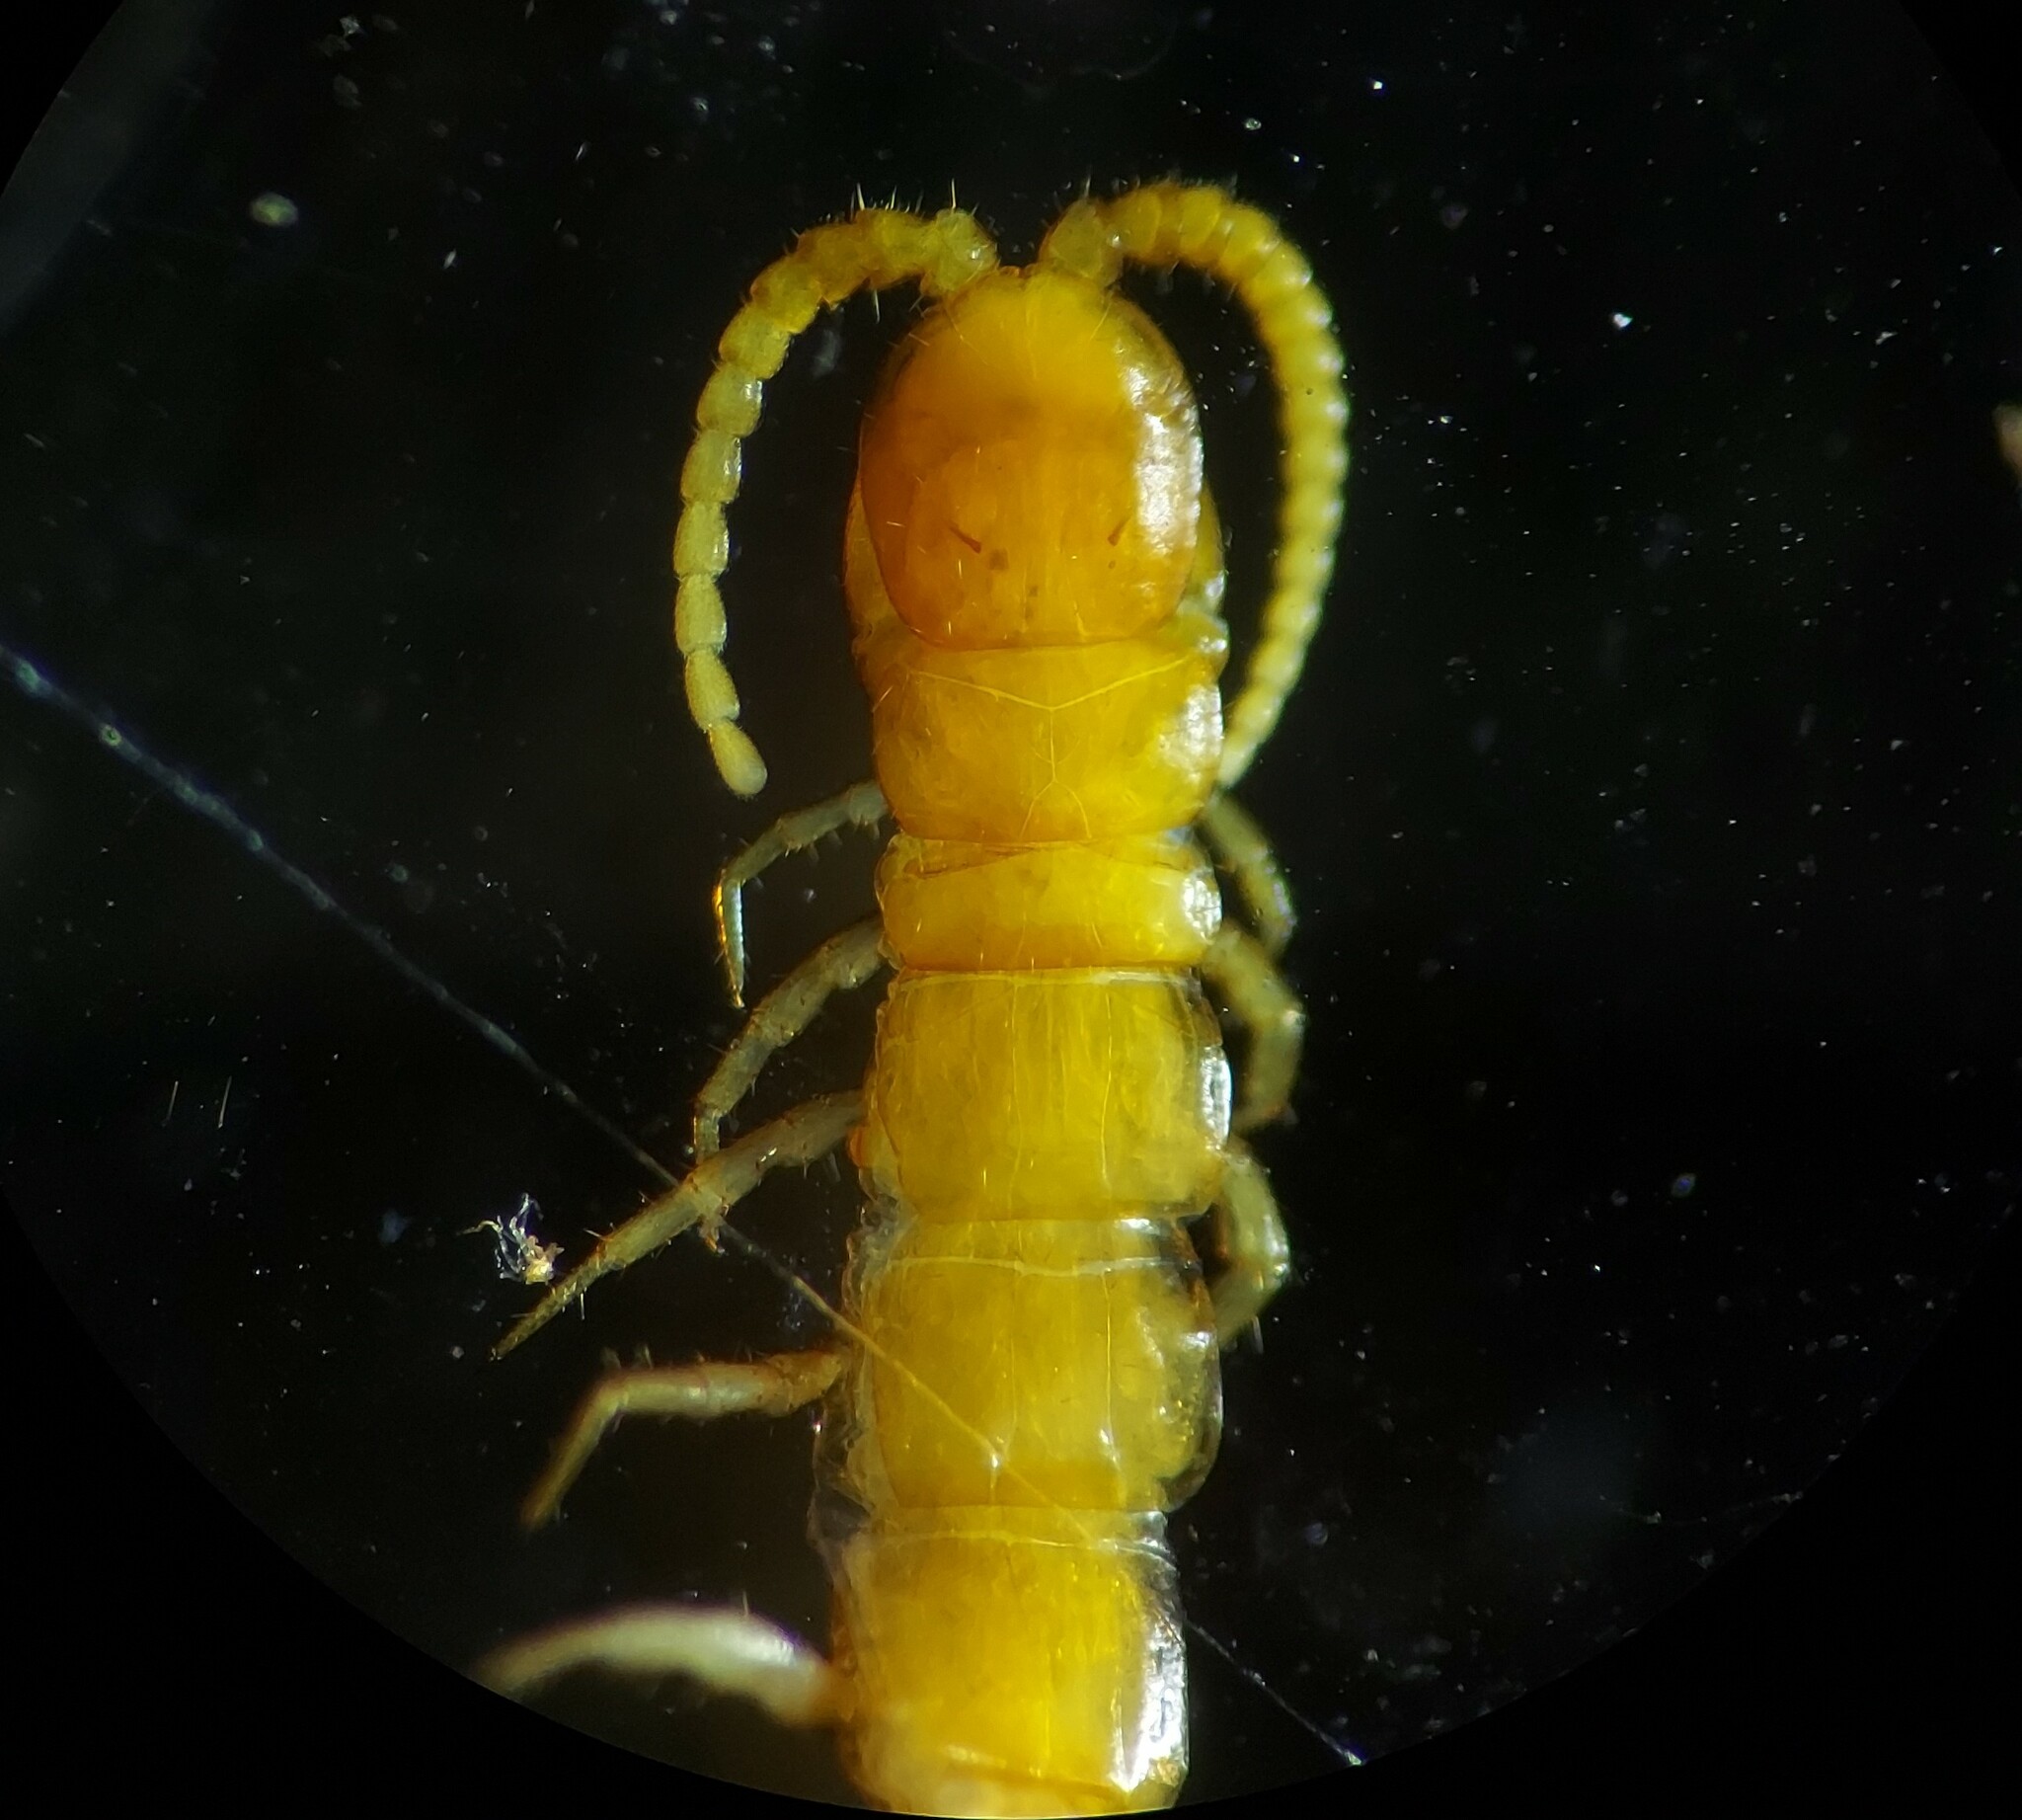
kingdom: Animalia
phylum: Arthropoda
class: Chilopoda
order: Scolopendromorpha
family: Cryptopidae
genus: Cryptops
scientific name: Cryptops leucopodus
